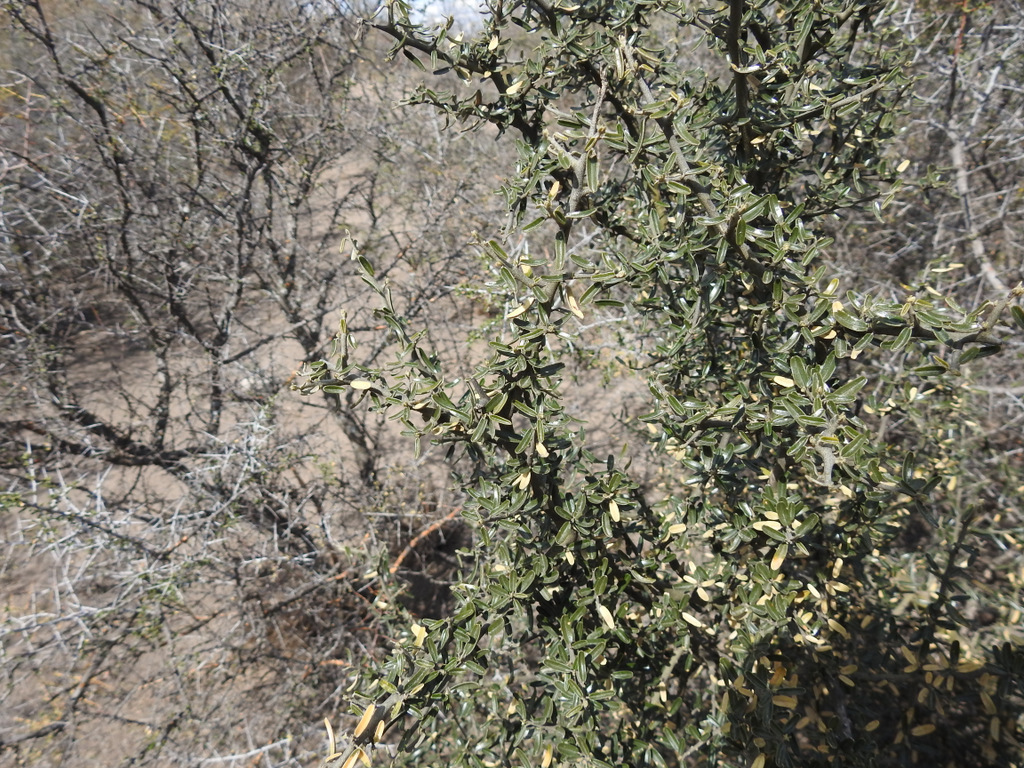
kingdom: Plantae
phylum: Tracheophyta
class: Magnoliopsida
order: Brassicales
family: Capparaceae
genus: Atamisquea
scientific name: Atamisquea emarginata
